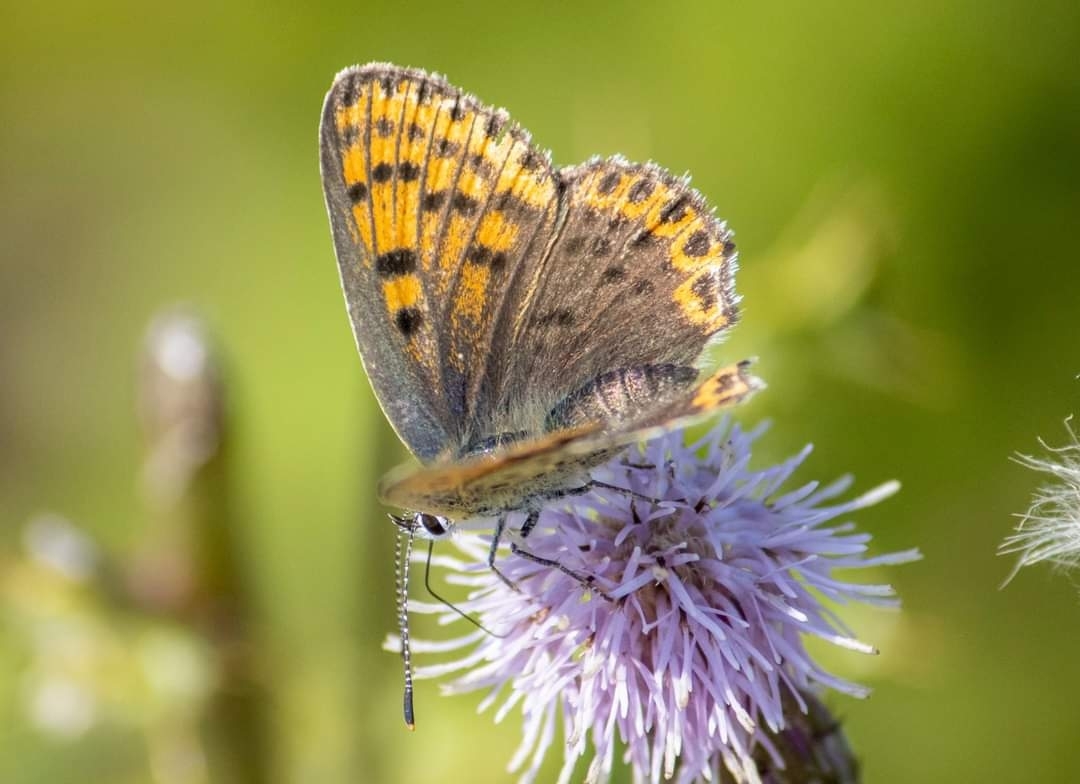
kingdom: Animalia
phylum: Arthropoda
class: Insecta
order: Lepidoptera
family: Lycaenidae
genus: Loweia
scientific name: Loweia tityrus
